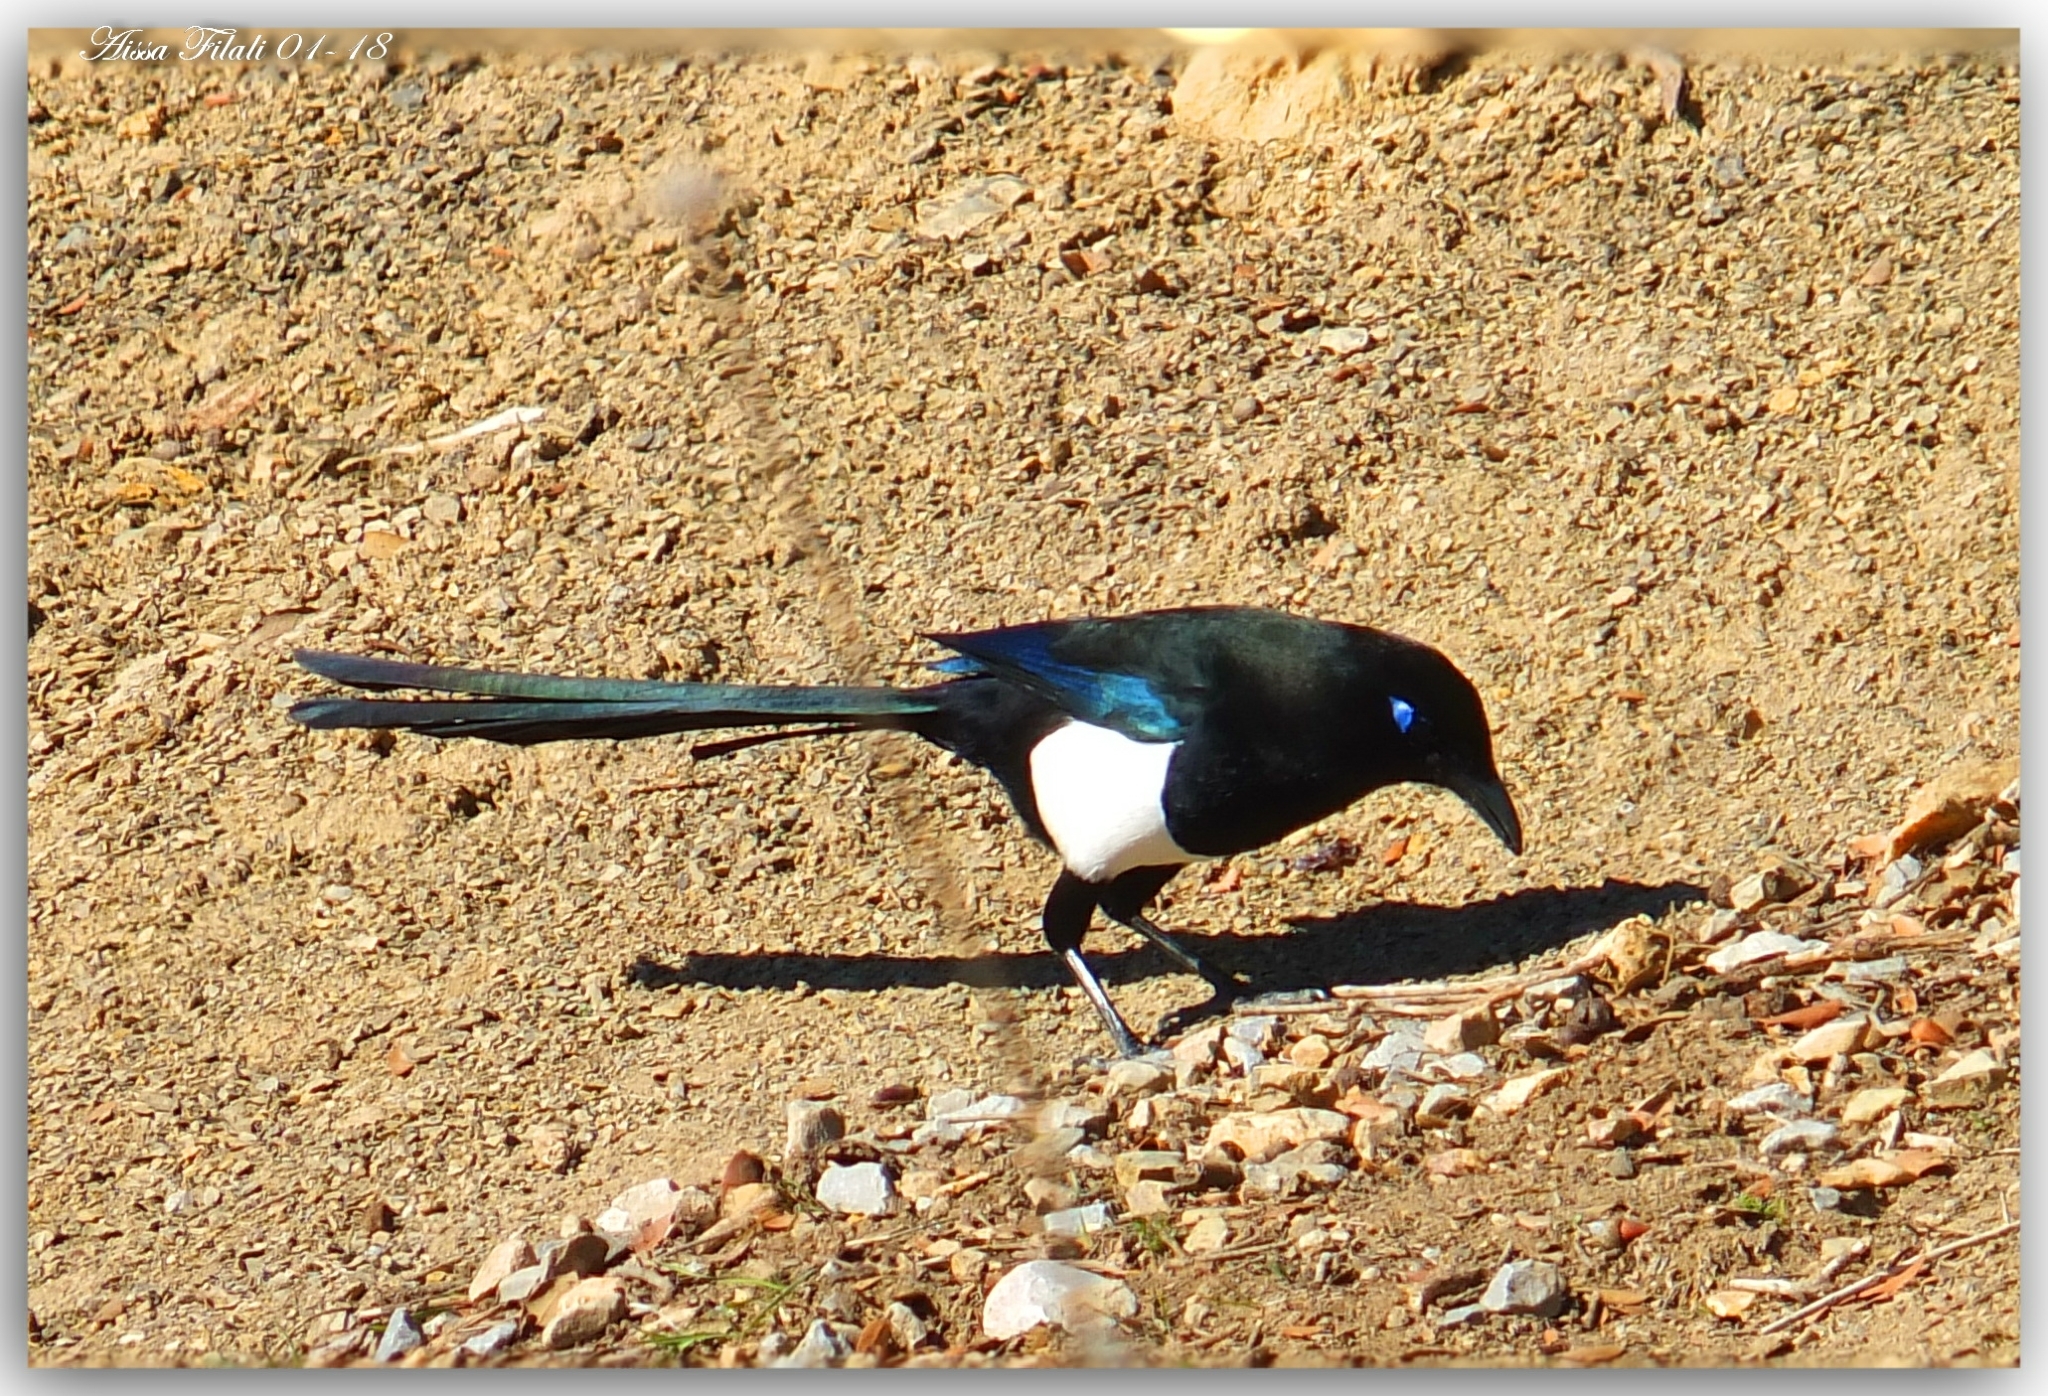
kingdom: Animalia
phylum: Chordata
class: Aves
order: Passeriformes
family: Corvidae
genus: Pica
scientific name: Pica mauritanica
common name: Maghreb magpie
